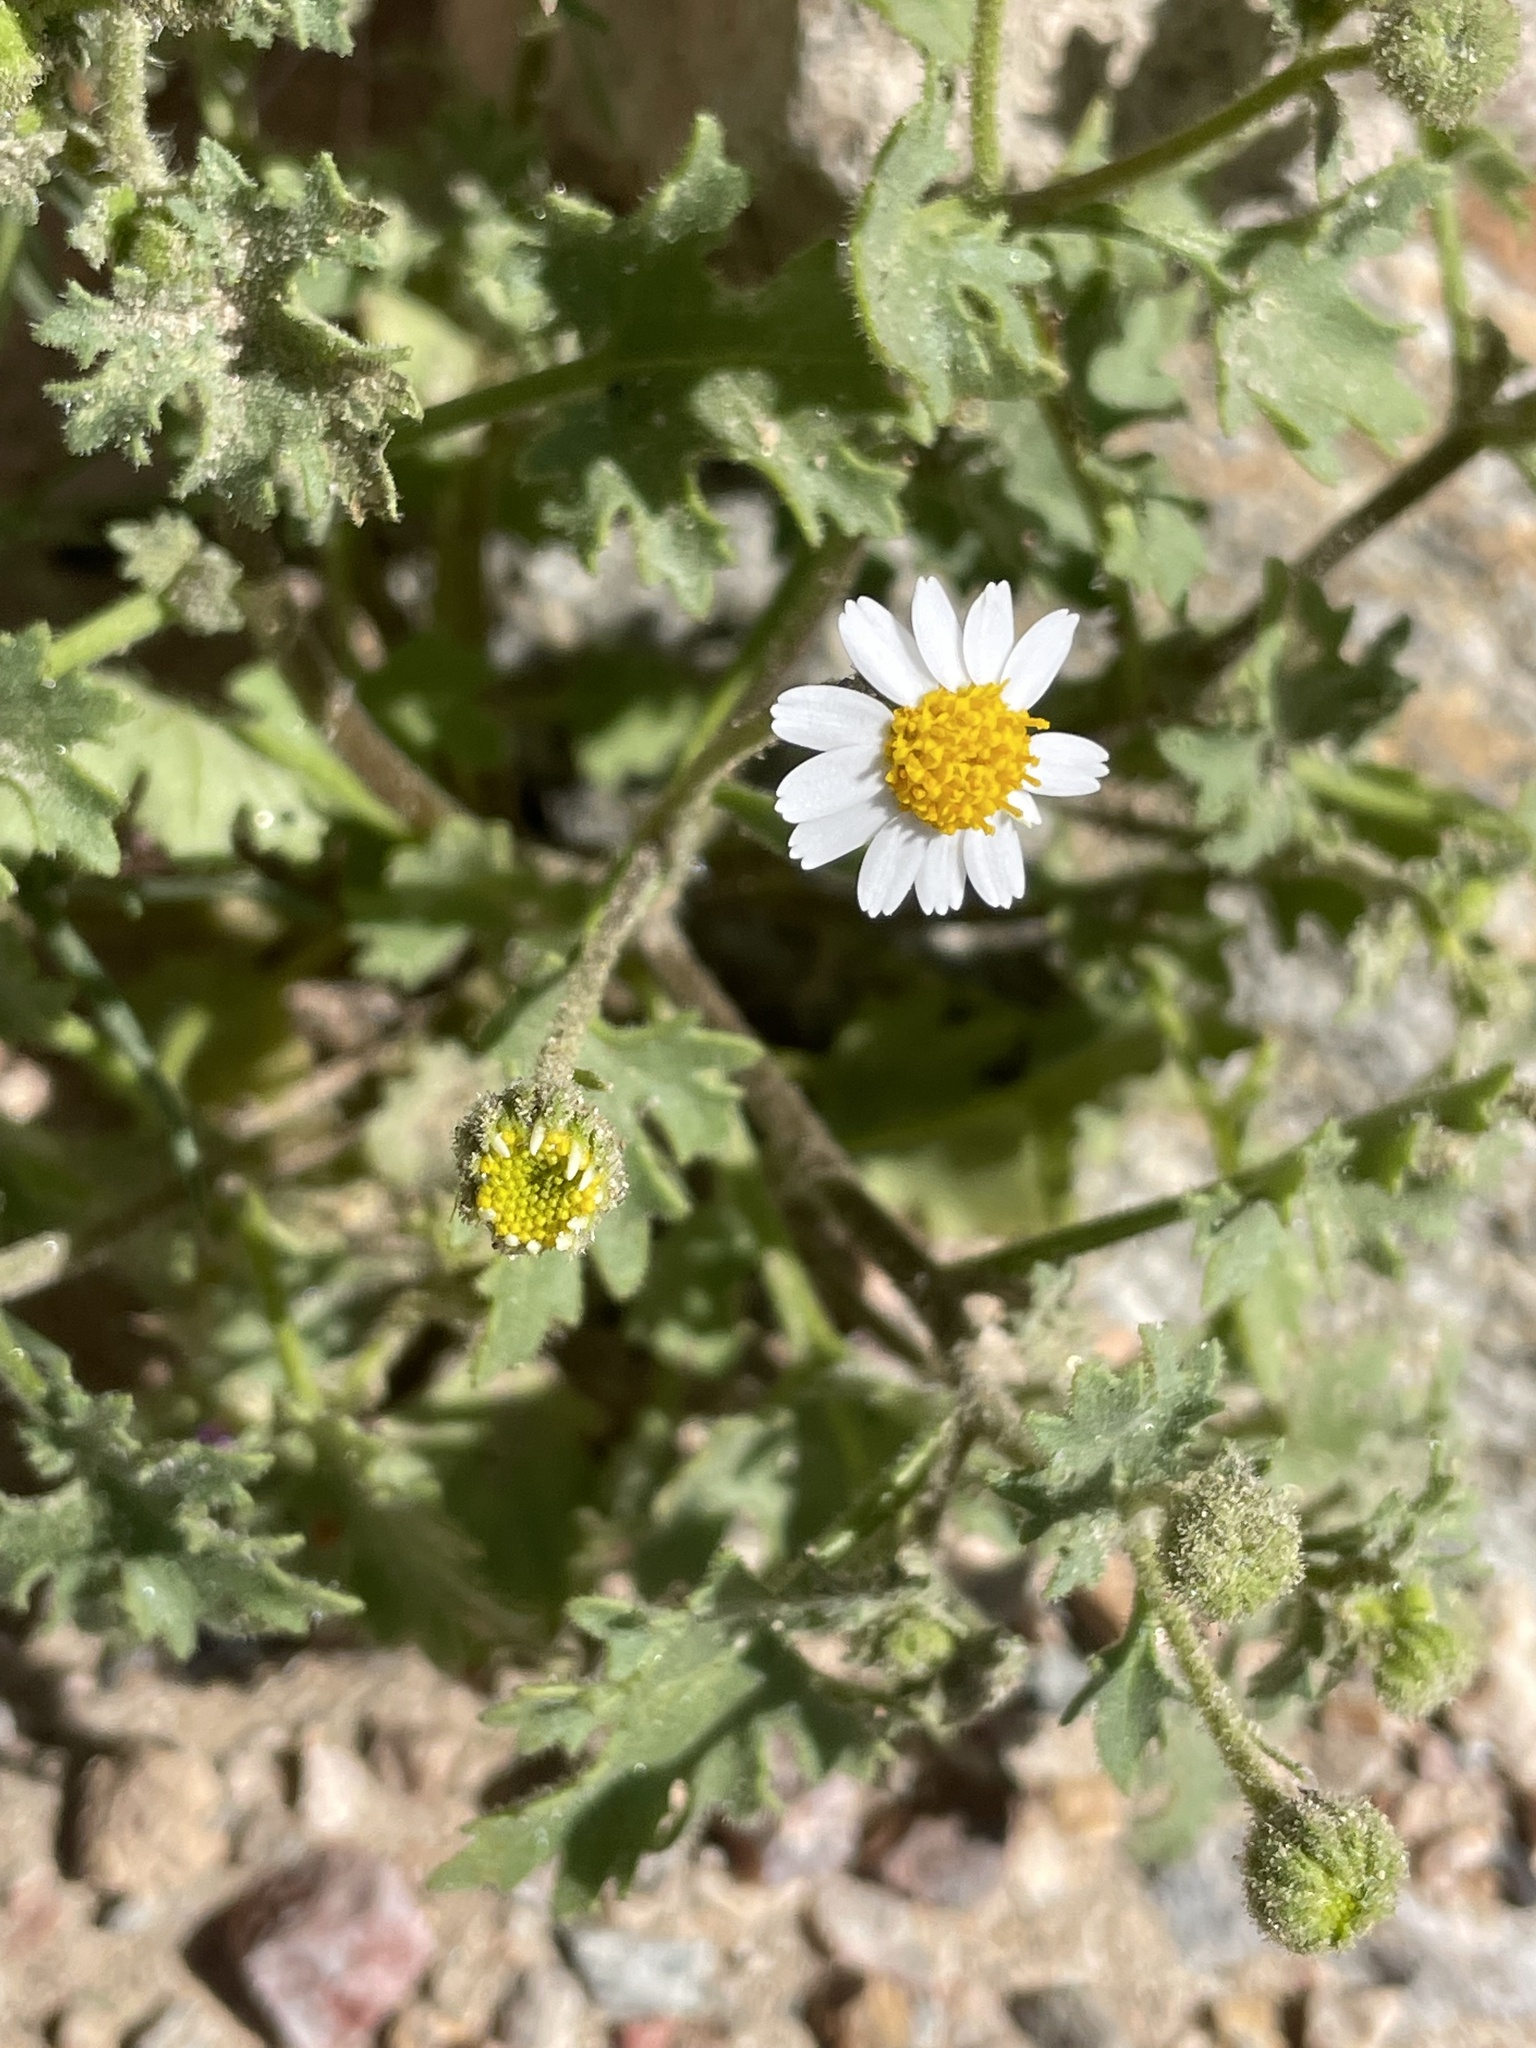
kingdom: Plantae
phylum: Tracheophyta
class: Magnoliopsida
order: Asterales
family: Asteraceae
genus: Laphamia
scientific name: Laphamia emoryi
